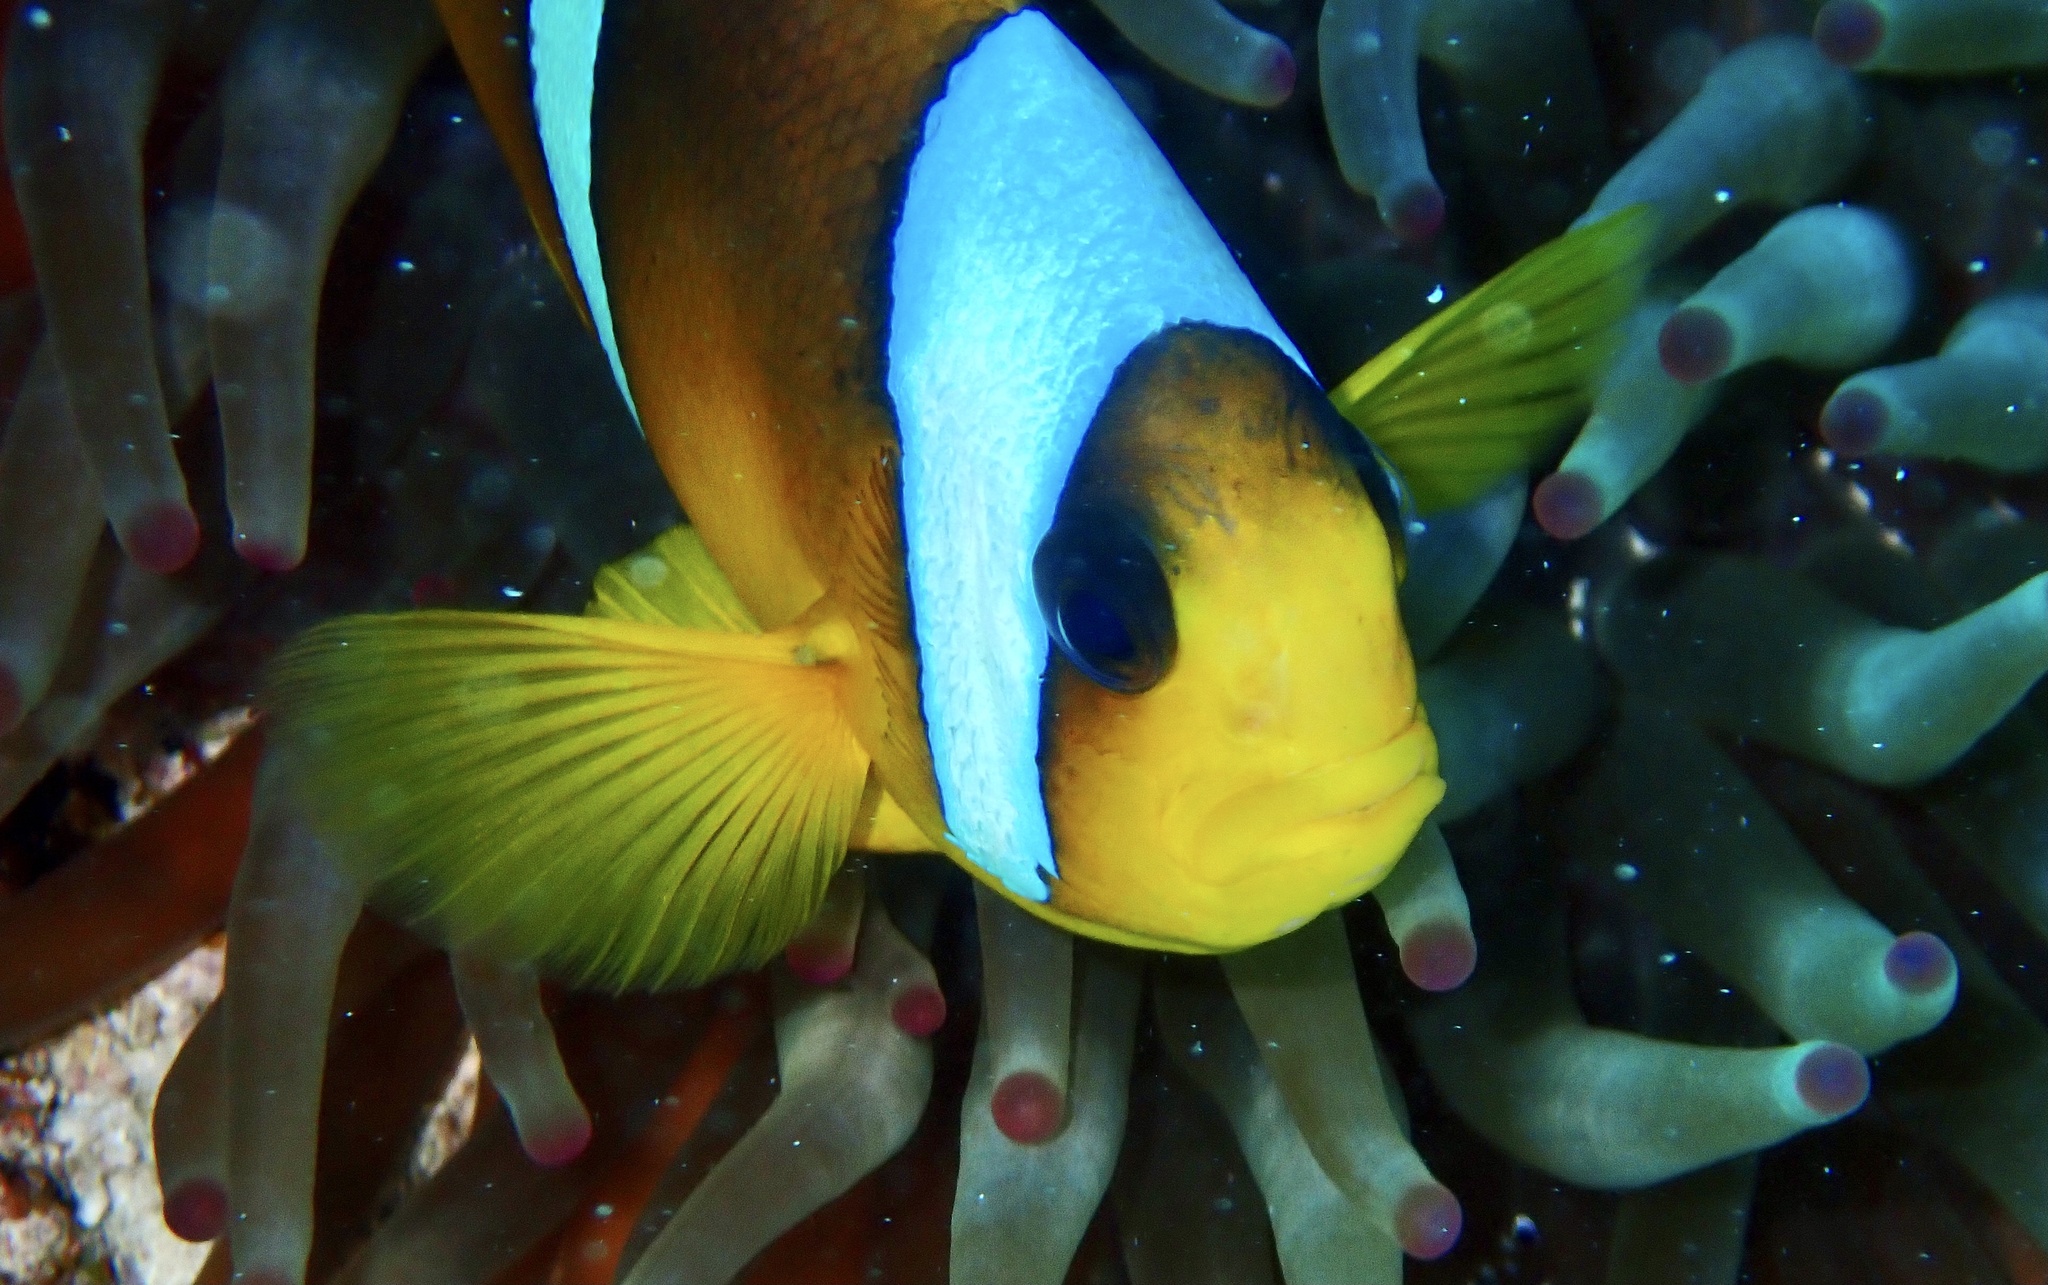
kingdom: Animalia
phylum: Chordata
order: Perciformes
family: Pomacentridae
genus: Amphiprion
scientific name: Amphiprion bicinctus
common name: Two-banded anemonefish
